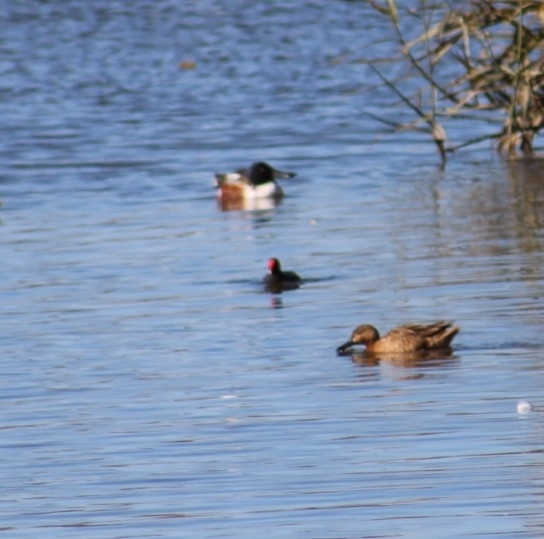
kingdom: Animalia
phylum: Chordata
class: Aves
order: Gruiformes
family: Rallidae
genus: Gallinula
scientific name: Gallinula chloropus
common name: Common moorhen
